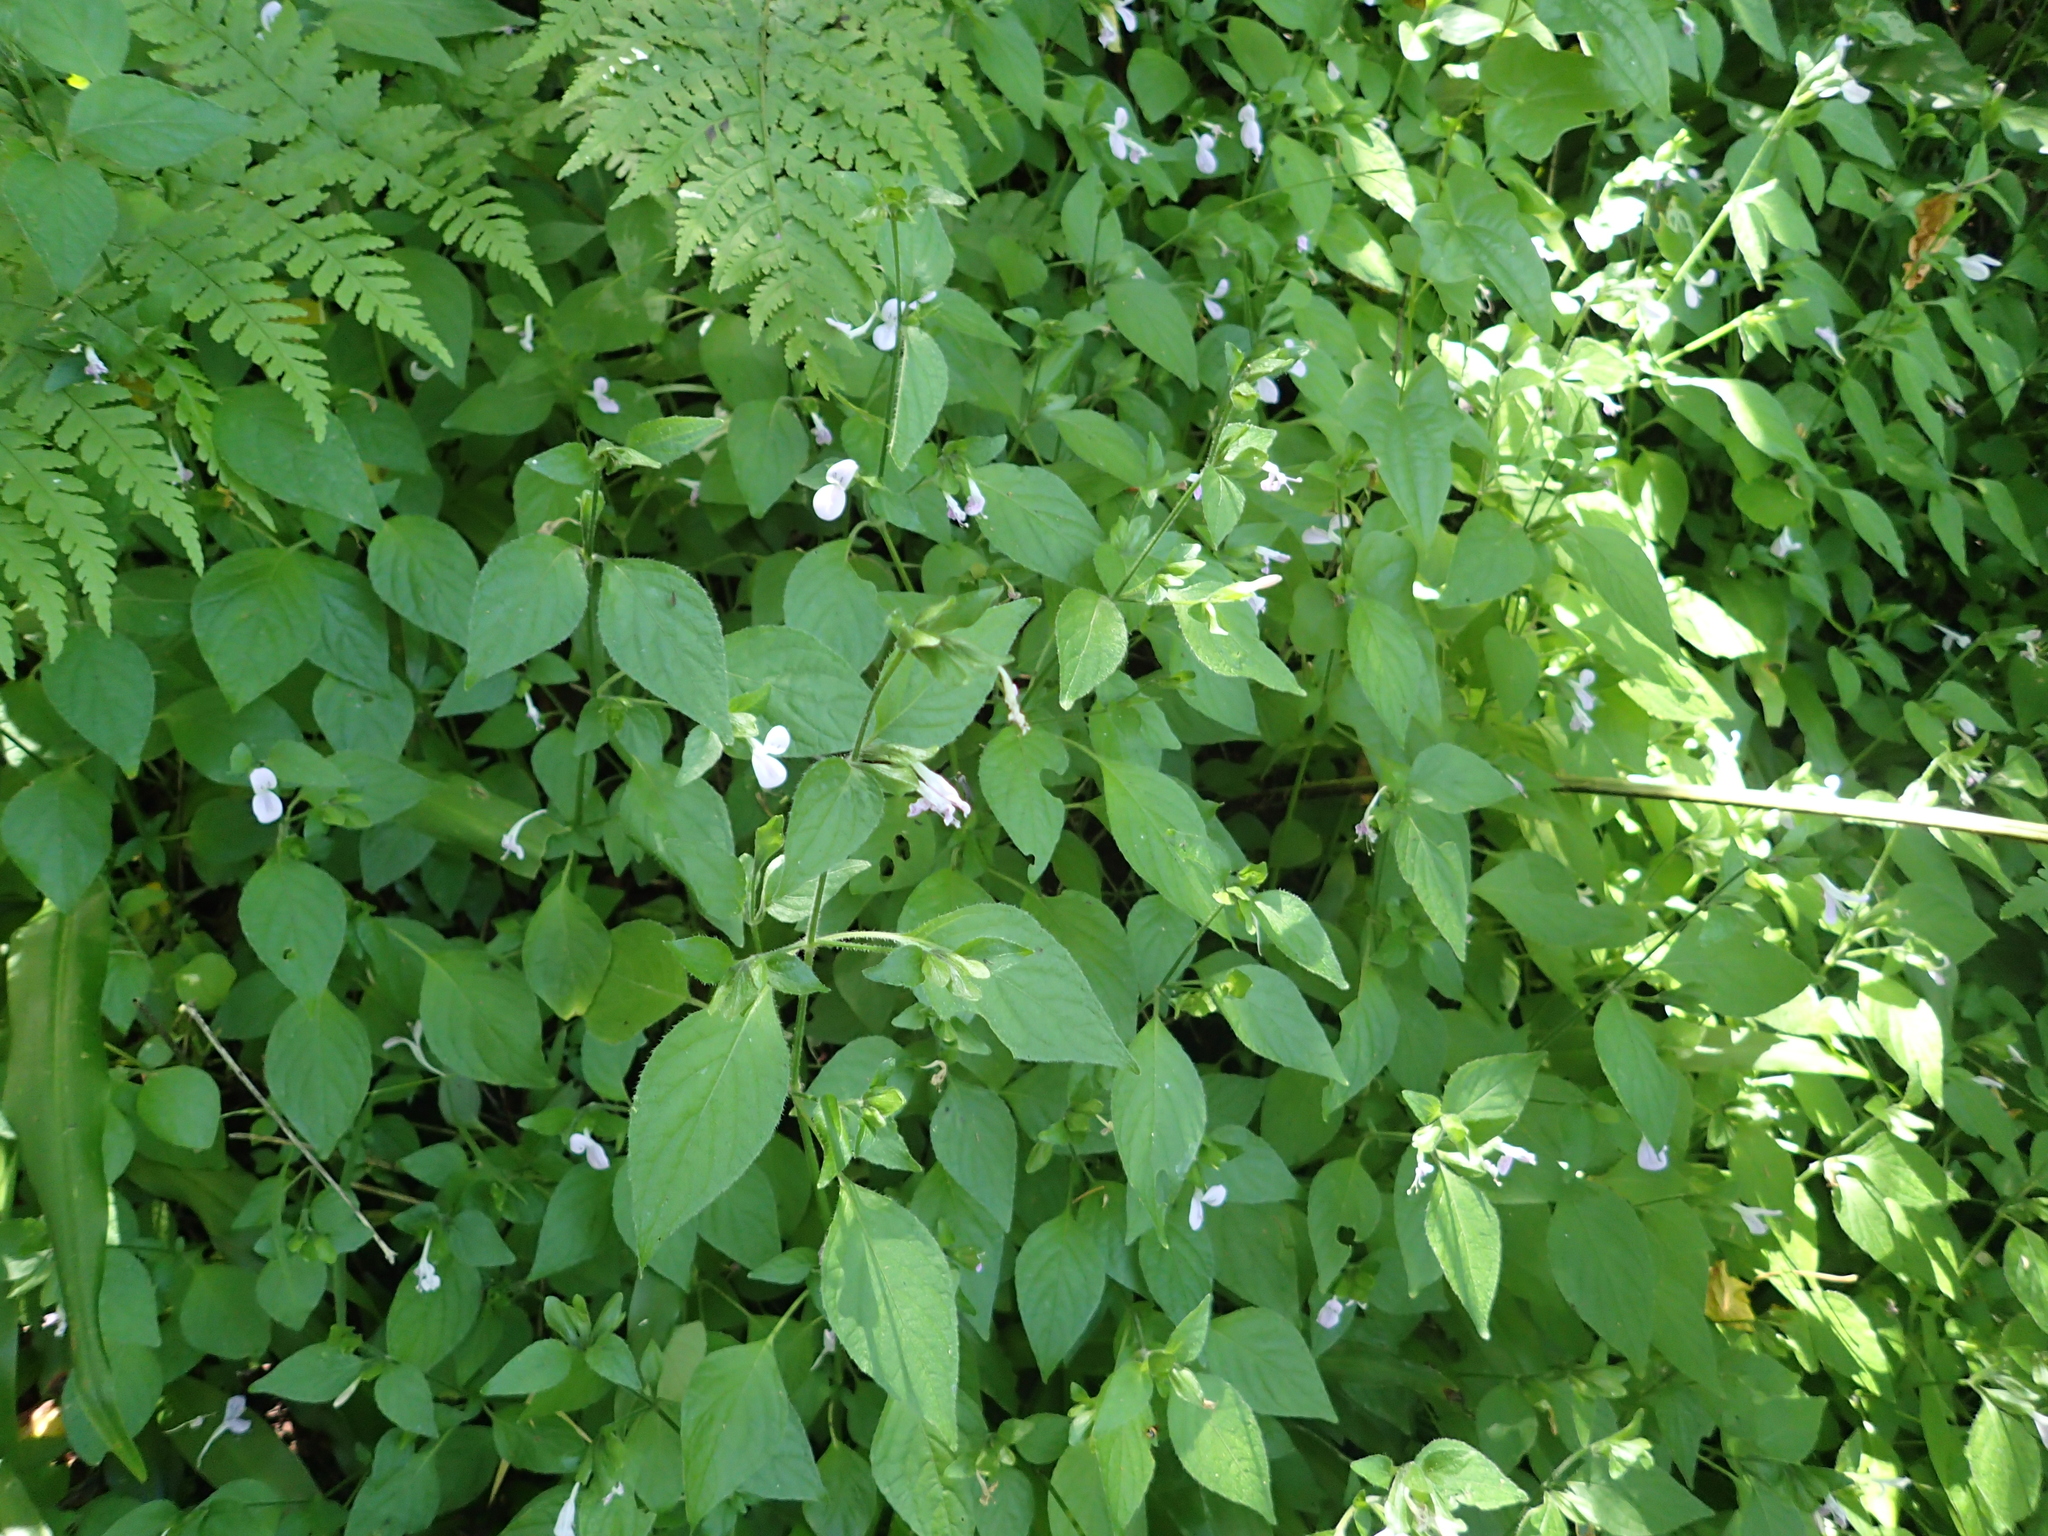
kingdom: Plantae
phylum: Tracheophyta
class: Magnoliopsida
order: Lamiales
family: Acanthaceae
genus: Hypoestes
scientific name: Hypoestes triflora
